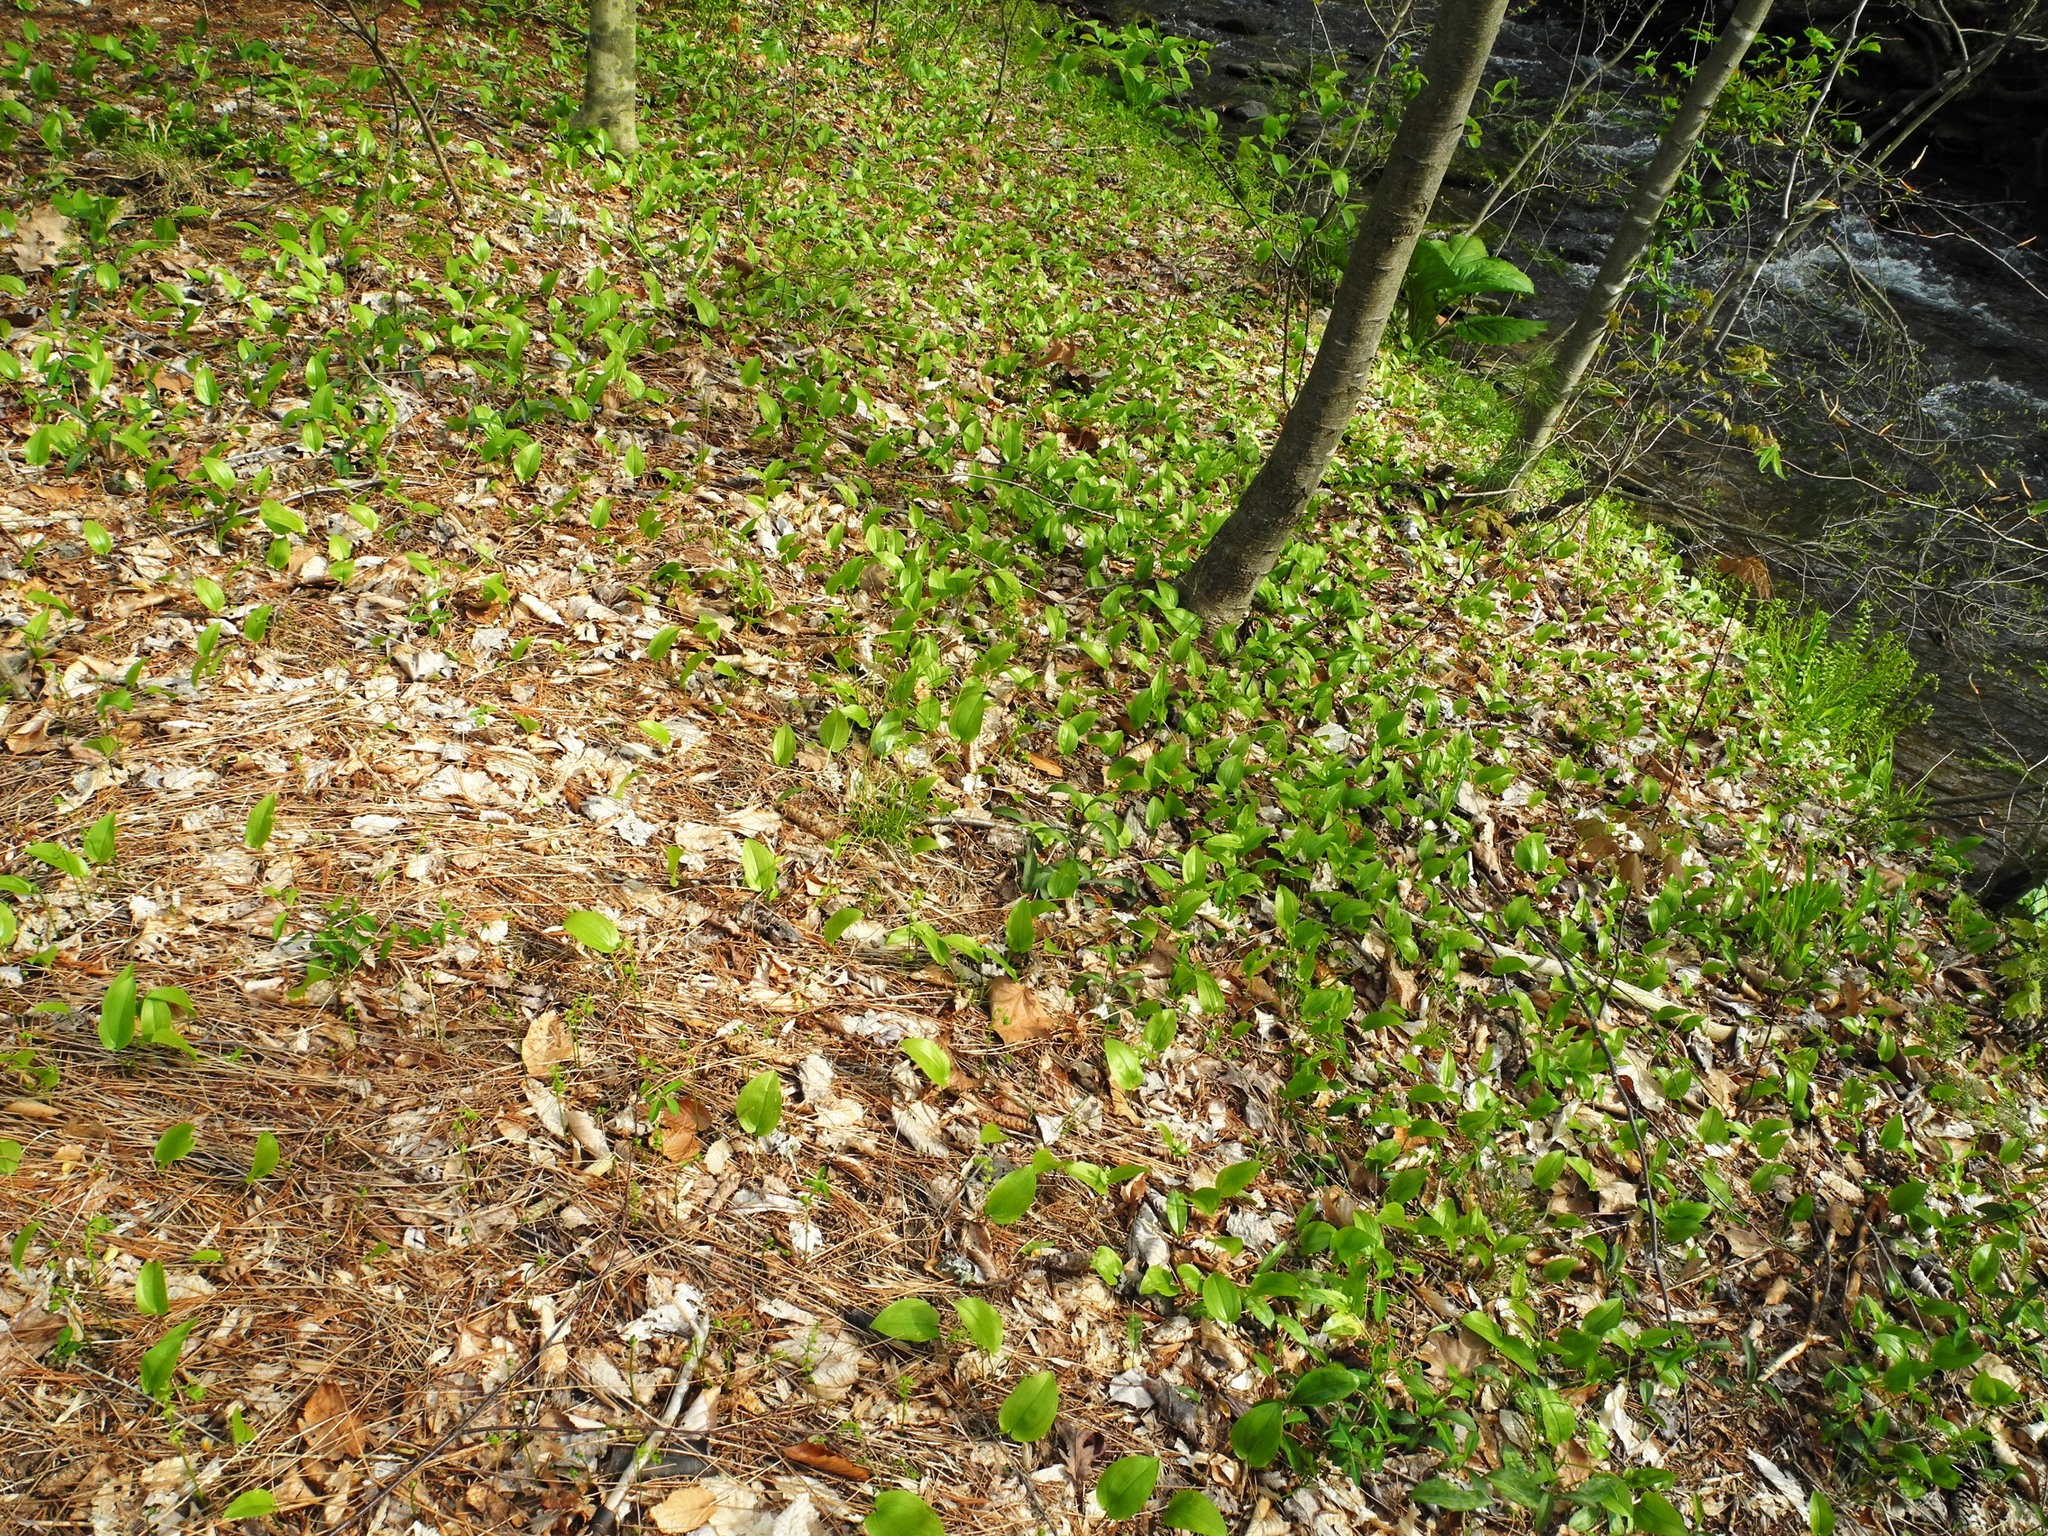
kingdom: Plantae
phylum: Tracheophyta
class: Liliopsida
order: Asparagales
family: Asparagaceae
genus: Maianthemum
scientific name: Maianthemum canadense
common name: False lily-of-the-valley
